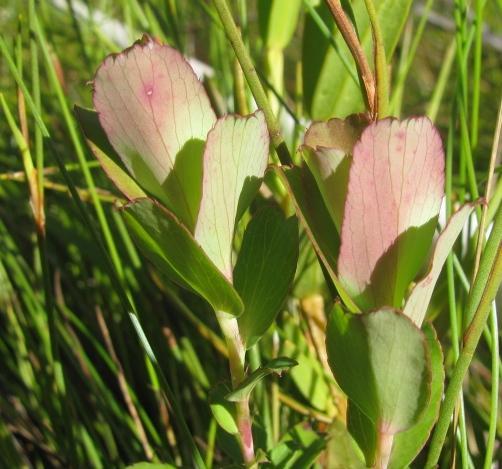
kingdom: Plantae
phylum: Tracheophyta
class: Magnoliopsida
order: Rosales
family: Rosaceae
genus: Cliffortia
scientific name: Cliffortia ovalis
